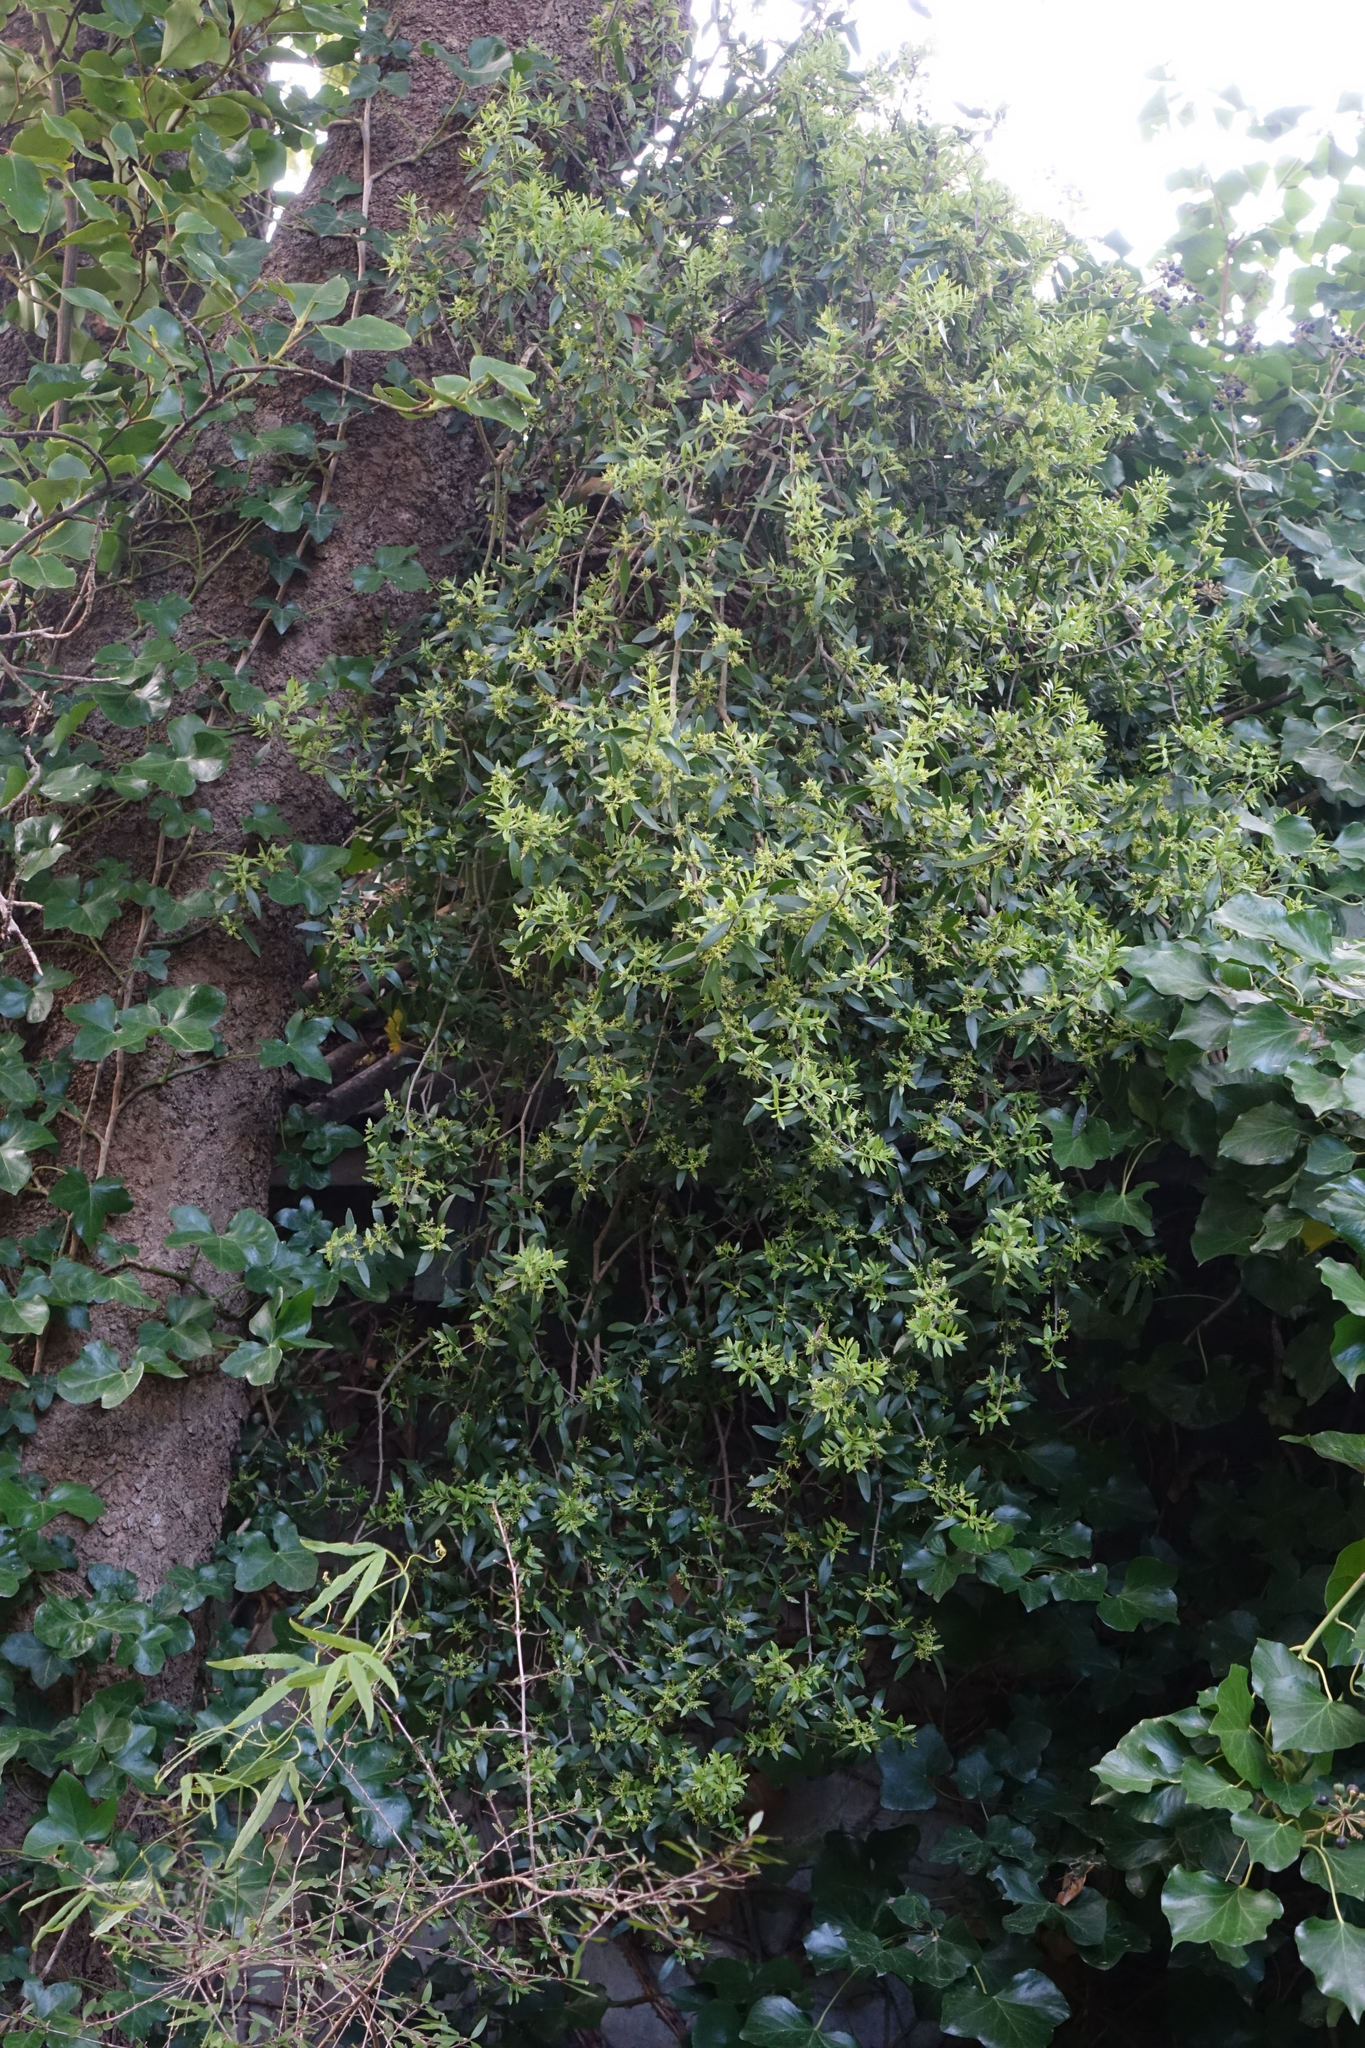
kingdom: Plantae
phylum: Tracheophyta
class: Magnoliopsida
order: Santalales
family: Loranthaceae
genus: Tupeia
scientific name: Tupeia antarctica
